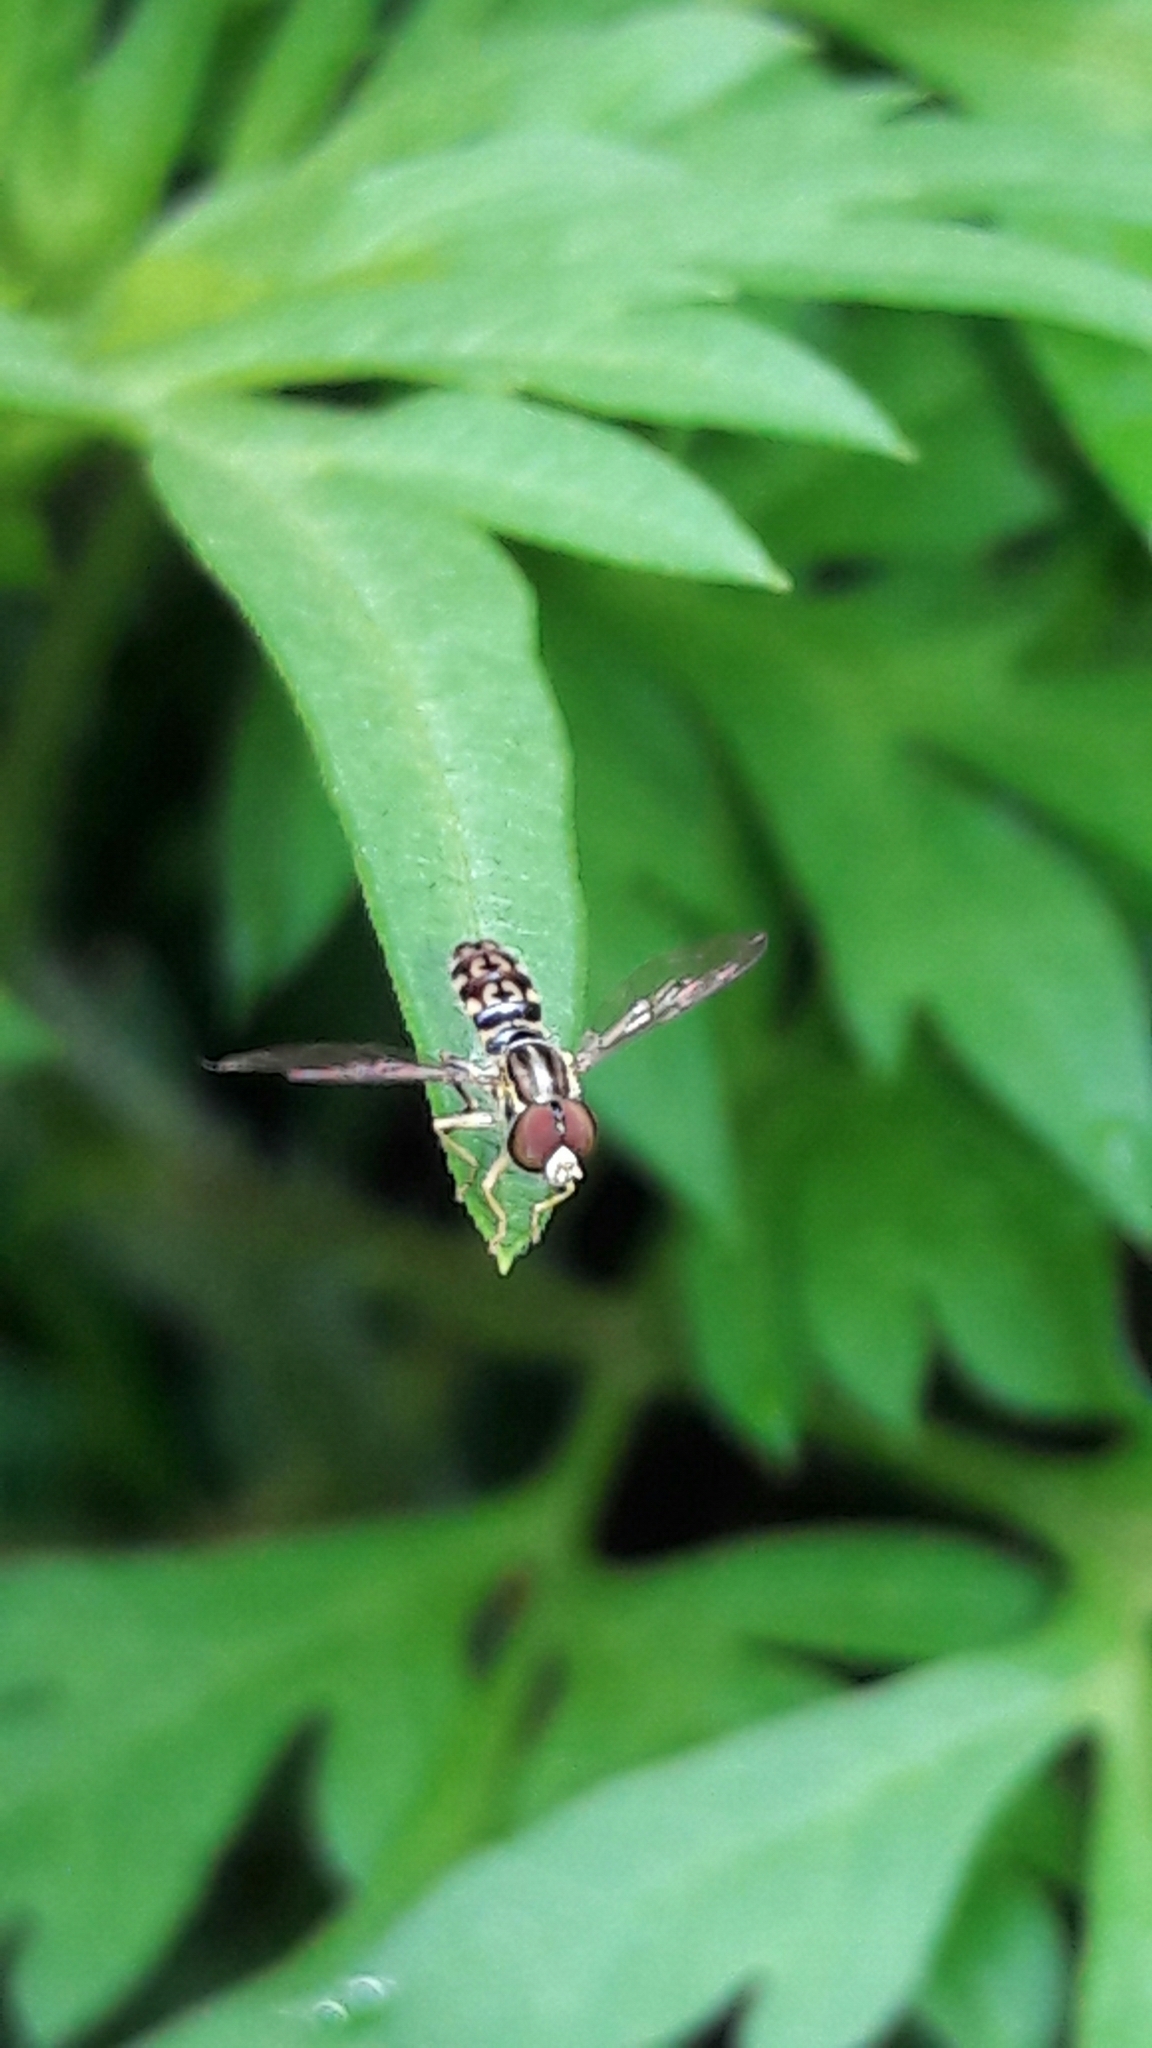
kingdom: Animalia
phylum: Arthropoda
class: Insecta
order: Diptera
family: Syrphidae
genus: Toxomerus
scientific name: Toxomerus virgulatus
